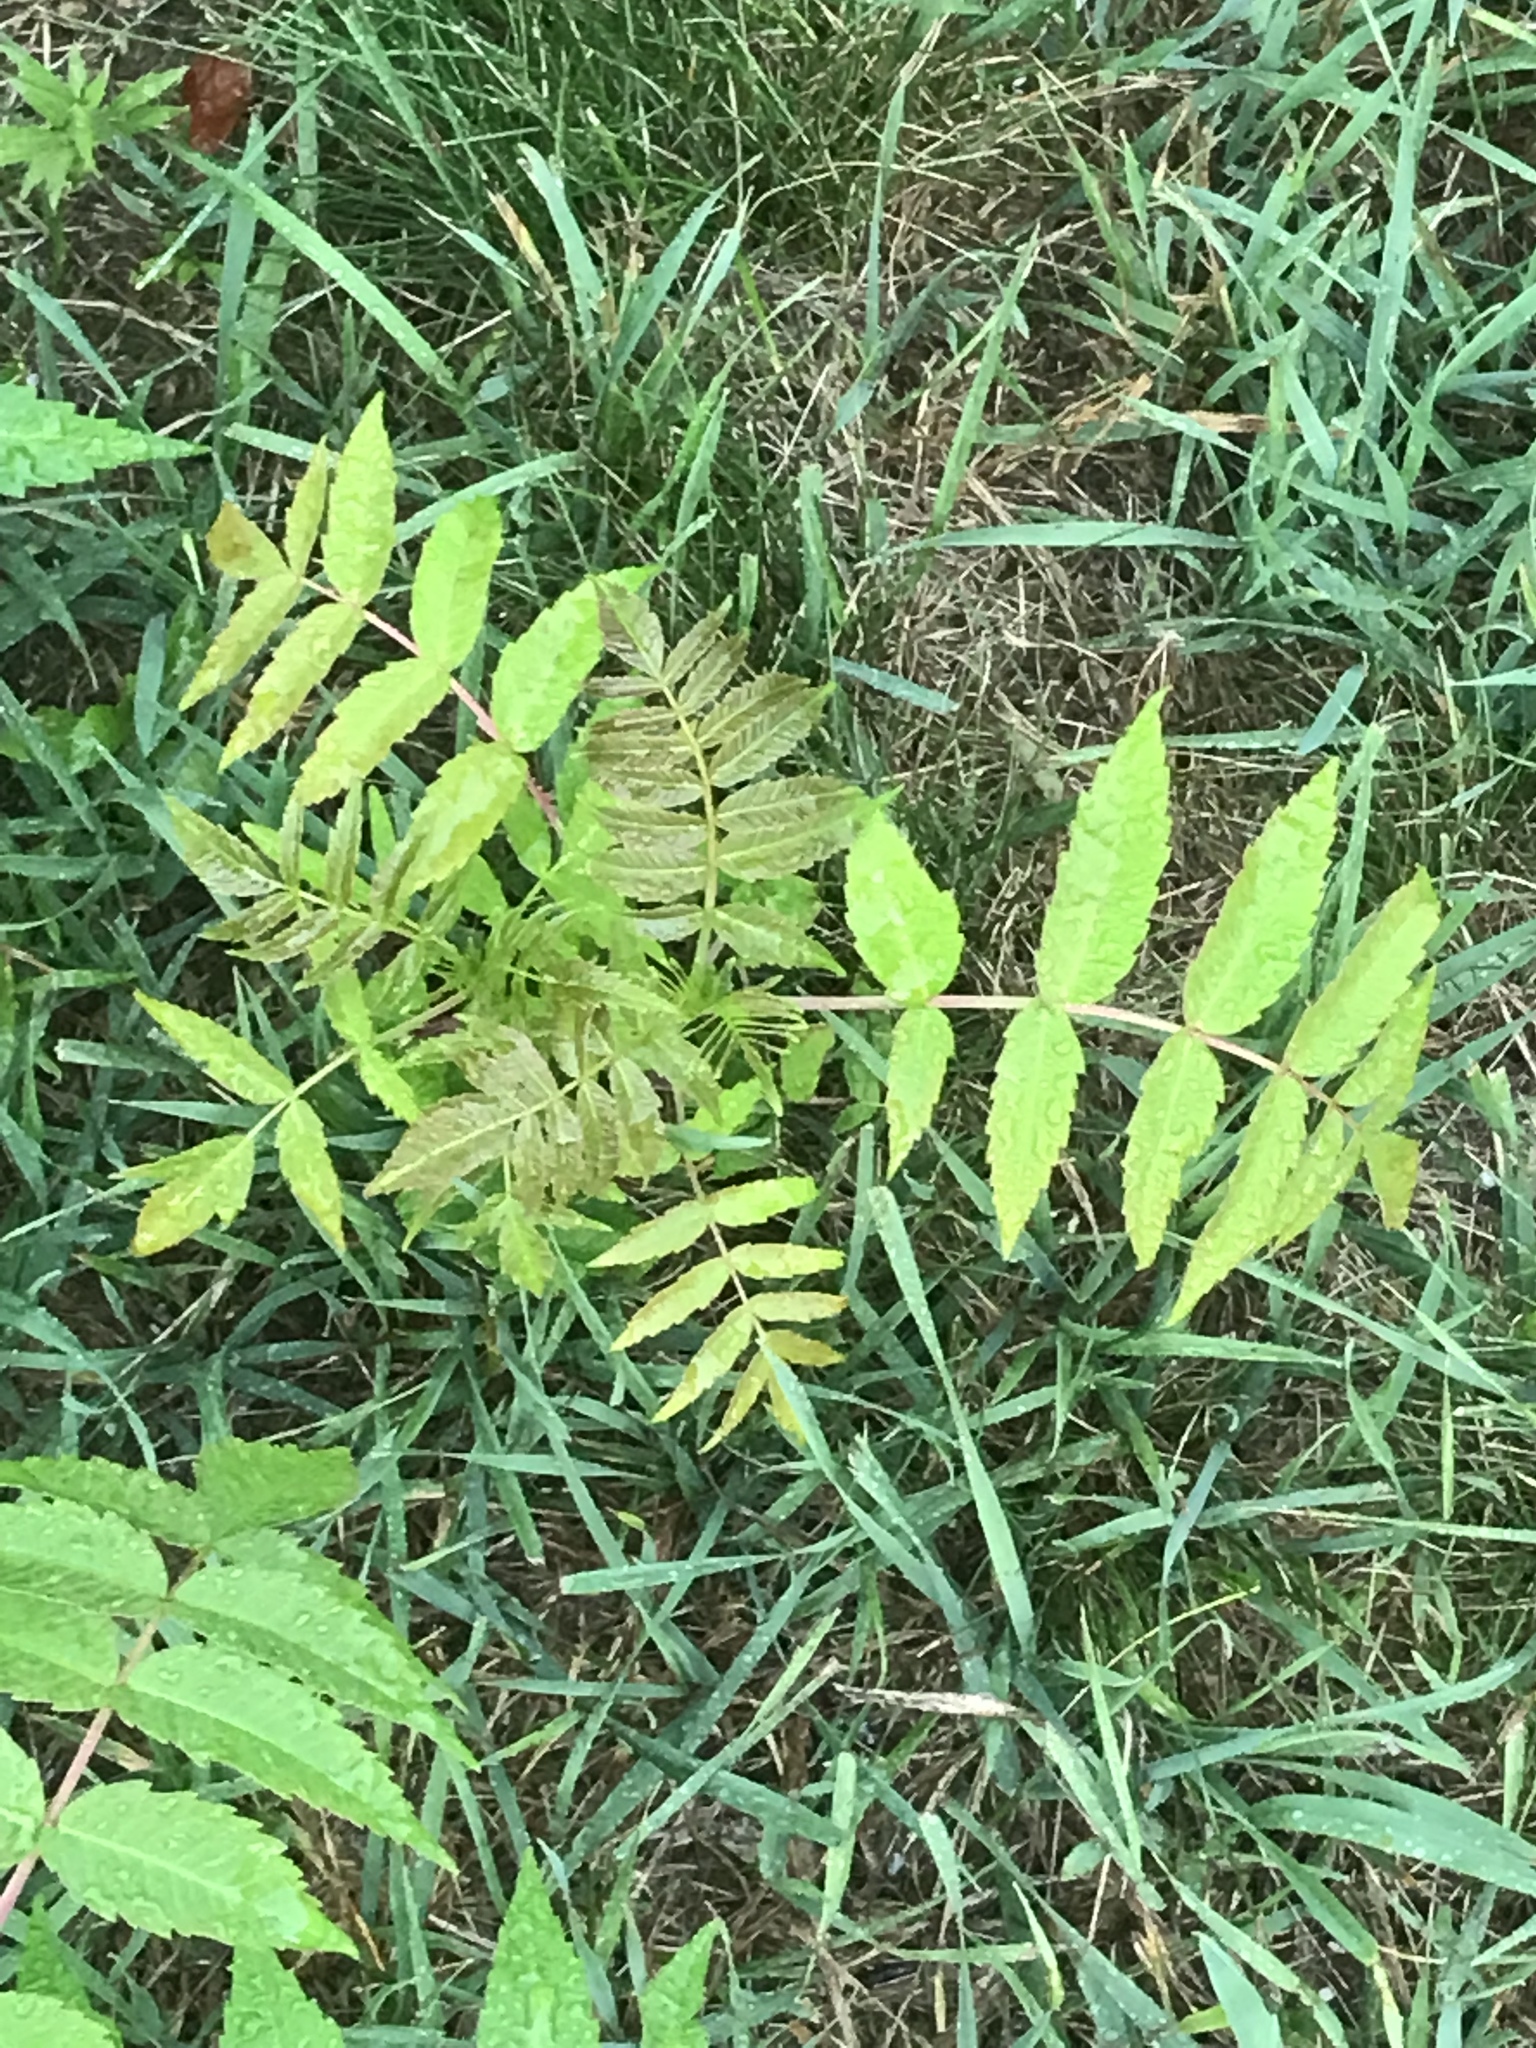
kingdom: Plantae
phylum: Tracheophyta
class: Magnoliopsida
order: Sapindales
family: Anacardiaceae
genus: Rhus
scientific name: Rhus typhina
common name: Staghorn sumac
